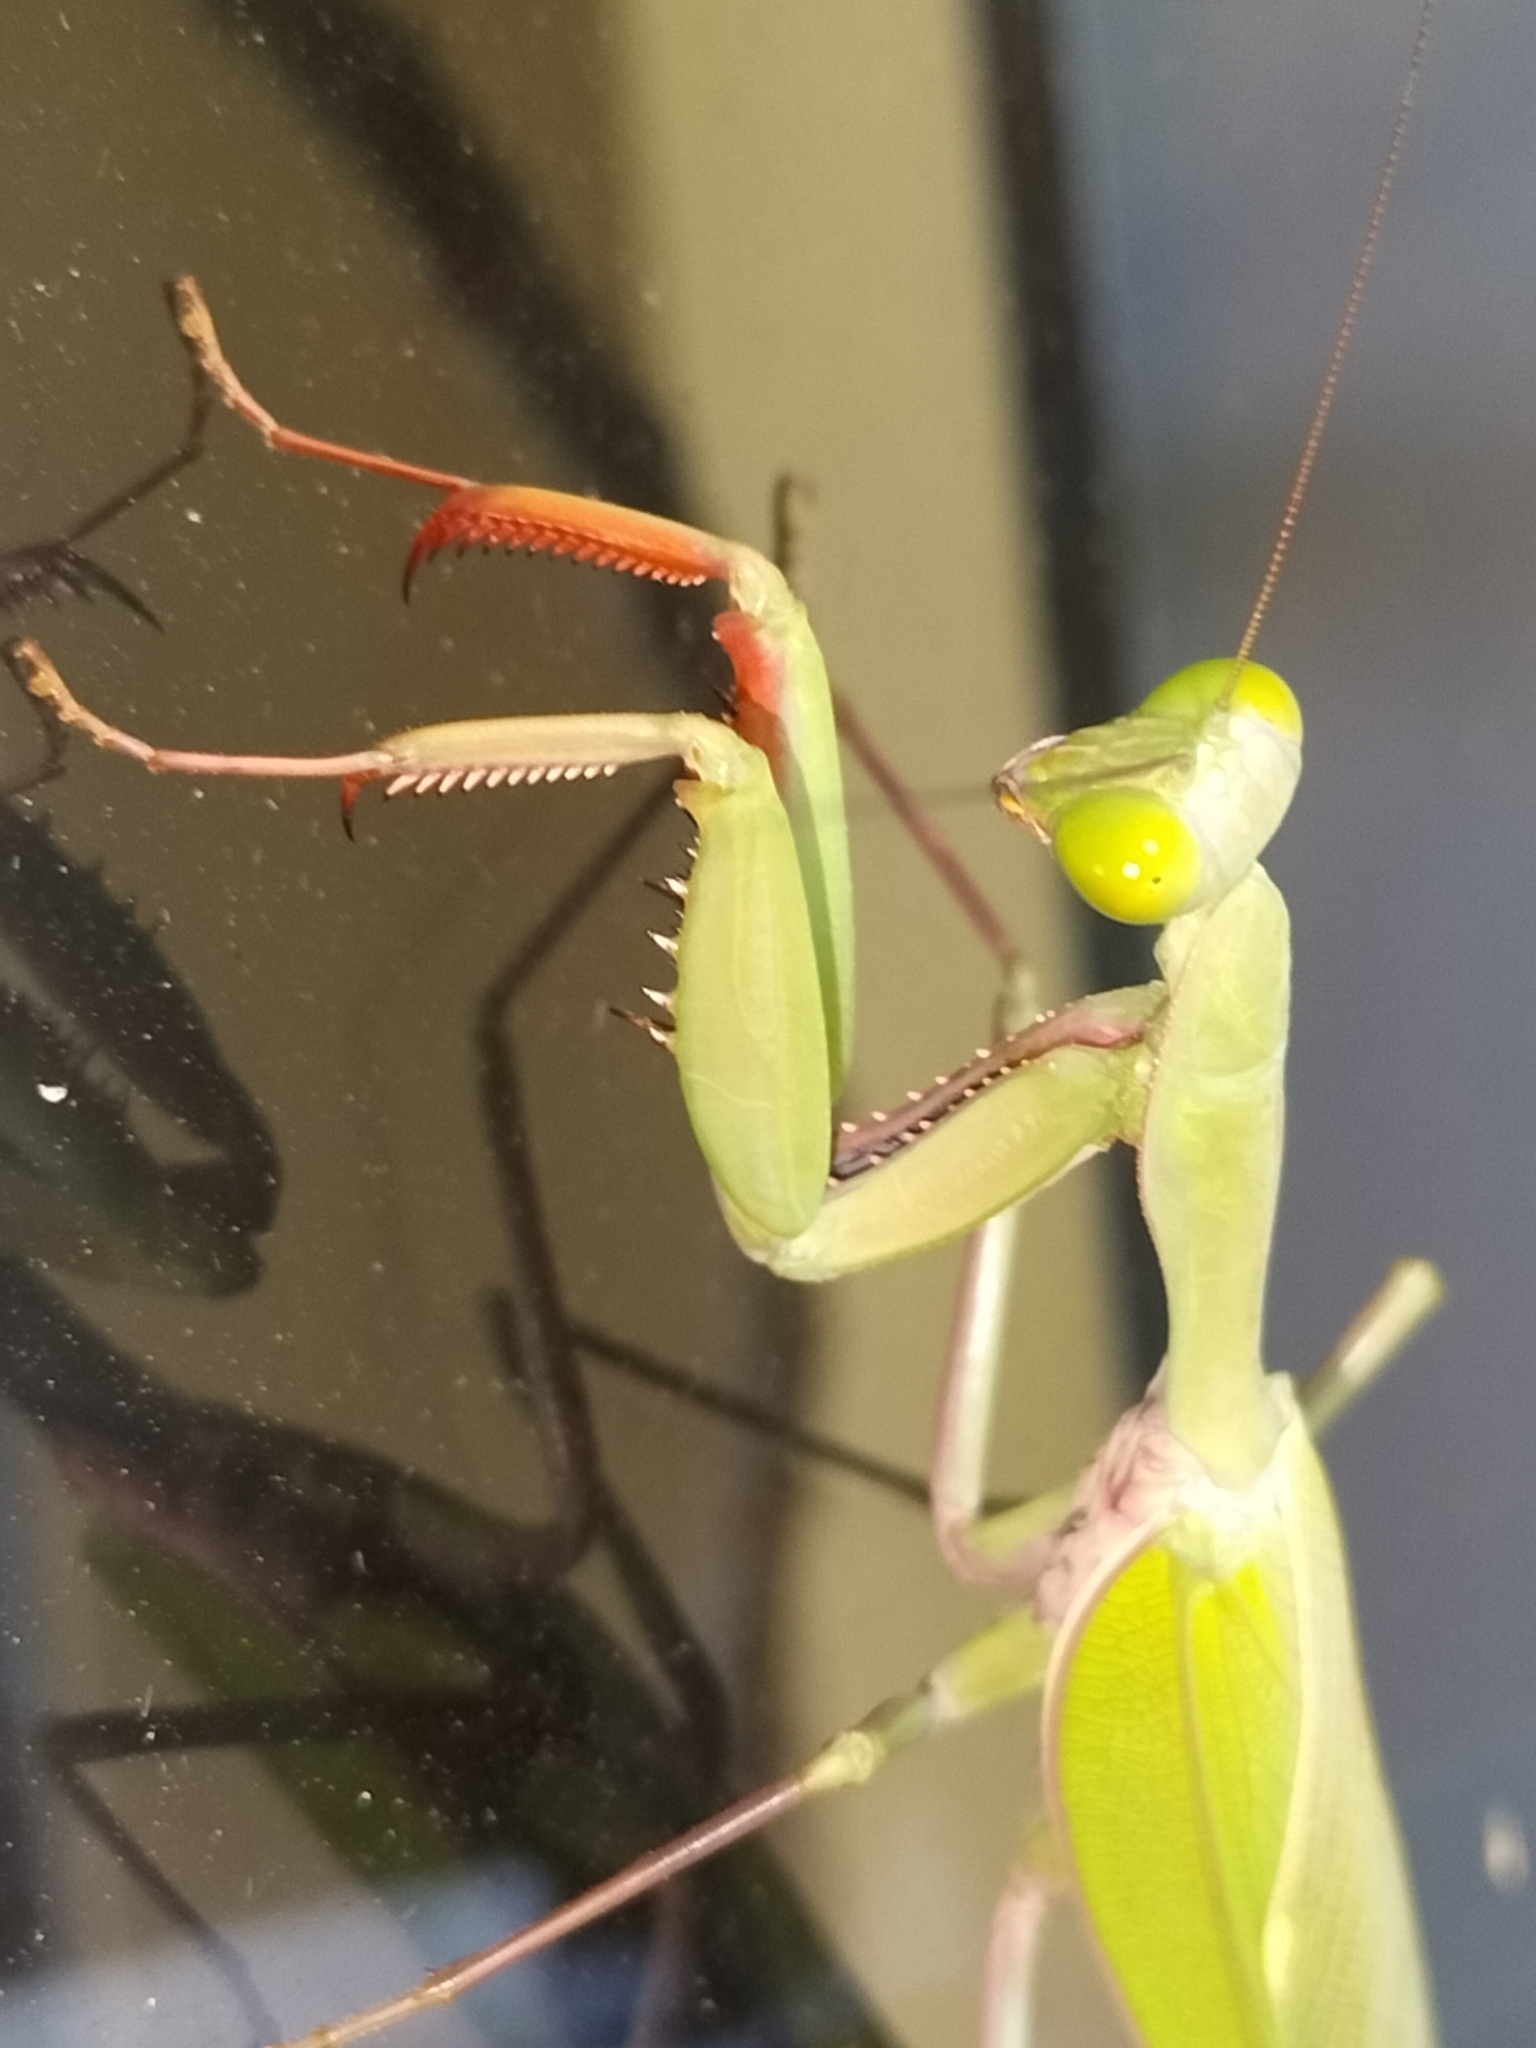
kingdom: Animalia
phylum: Arthropoda
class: Insecta
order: Mantodea
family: Mantidae
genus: Hierodula
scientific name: Hierodula majuscula
